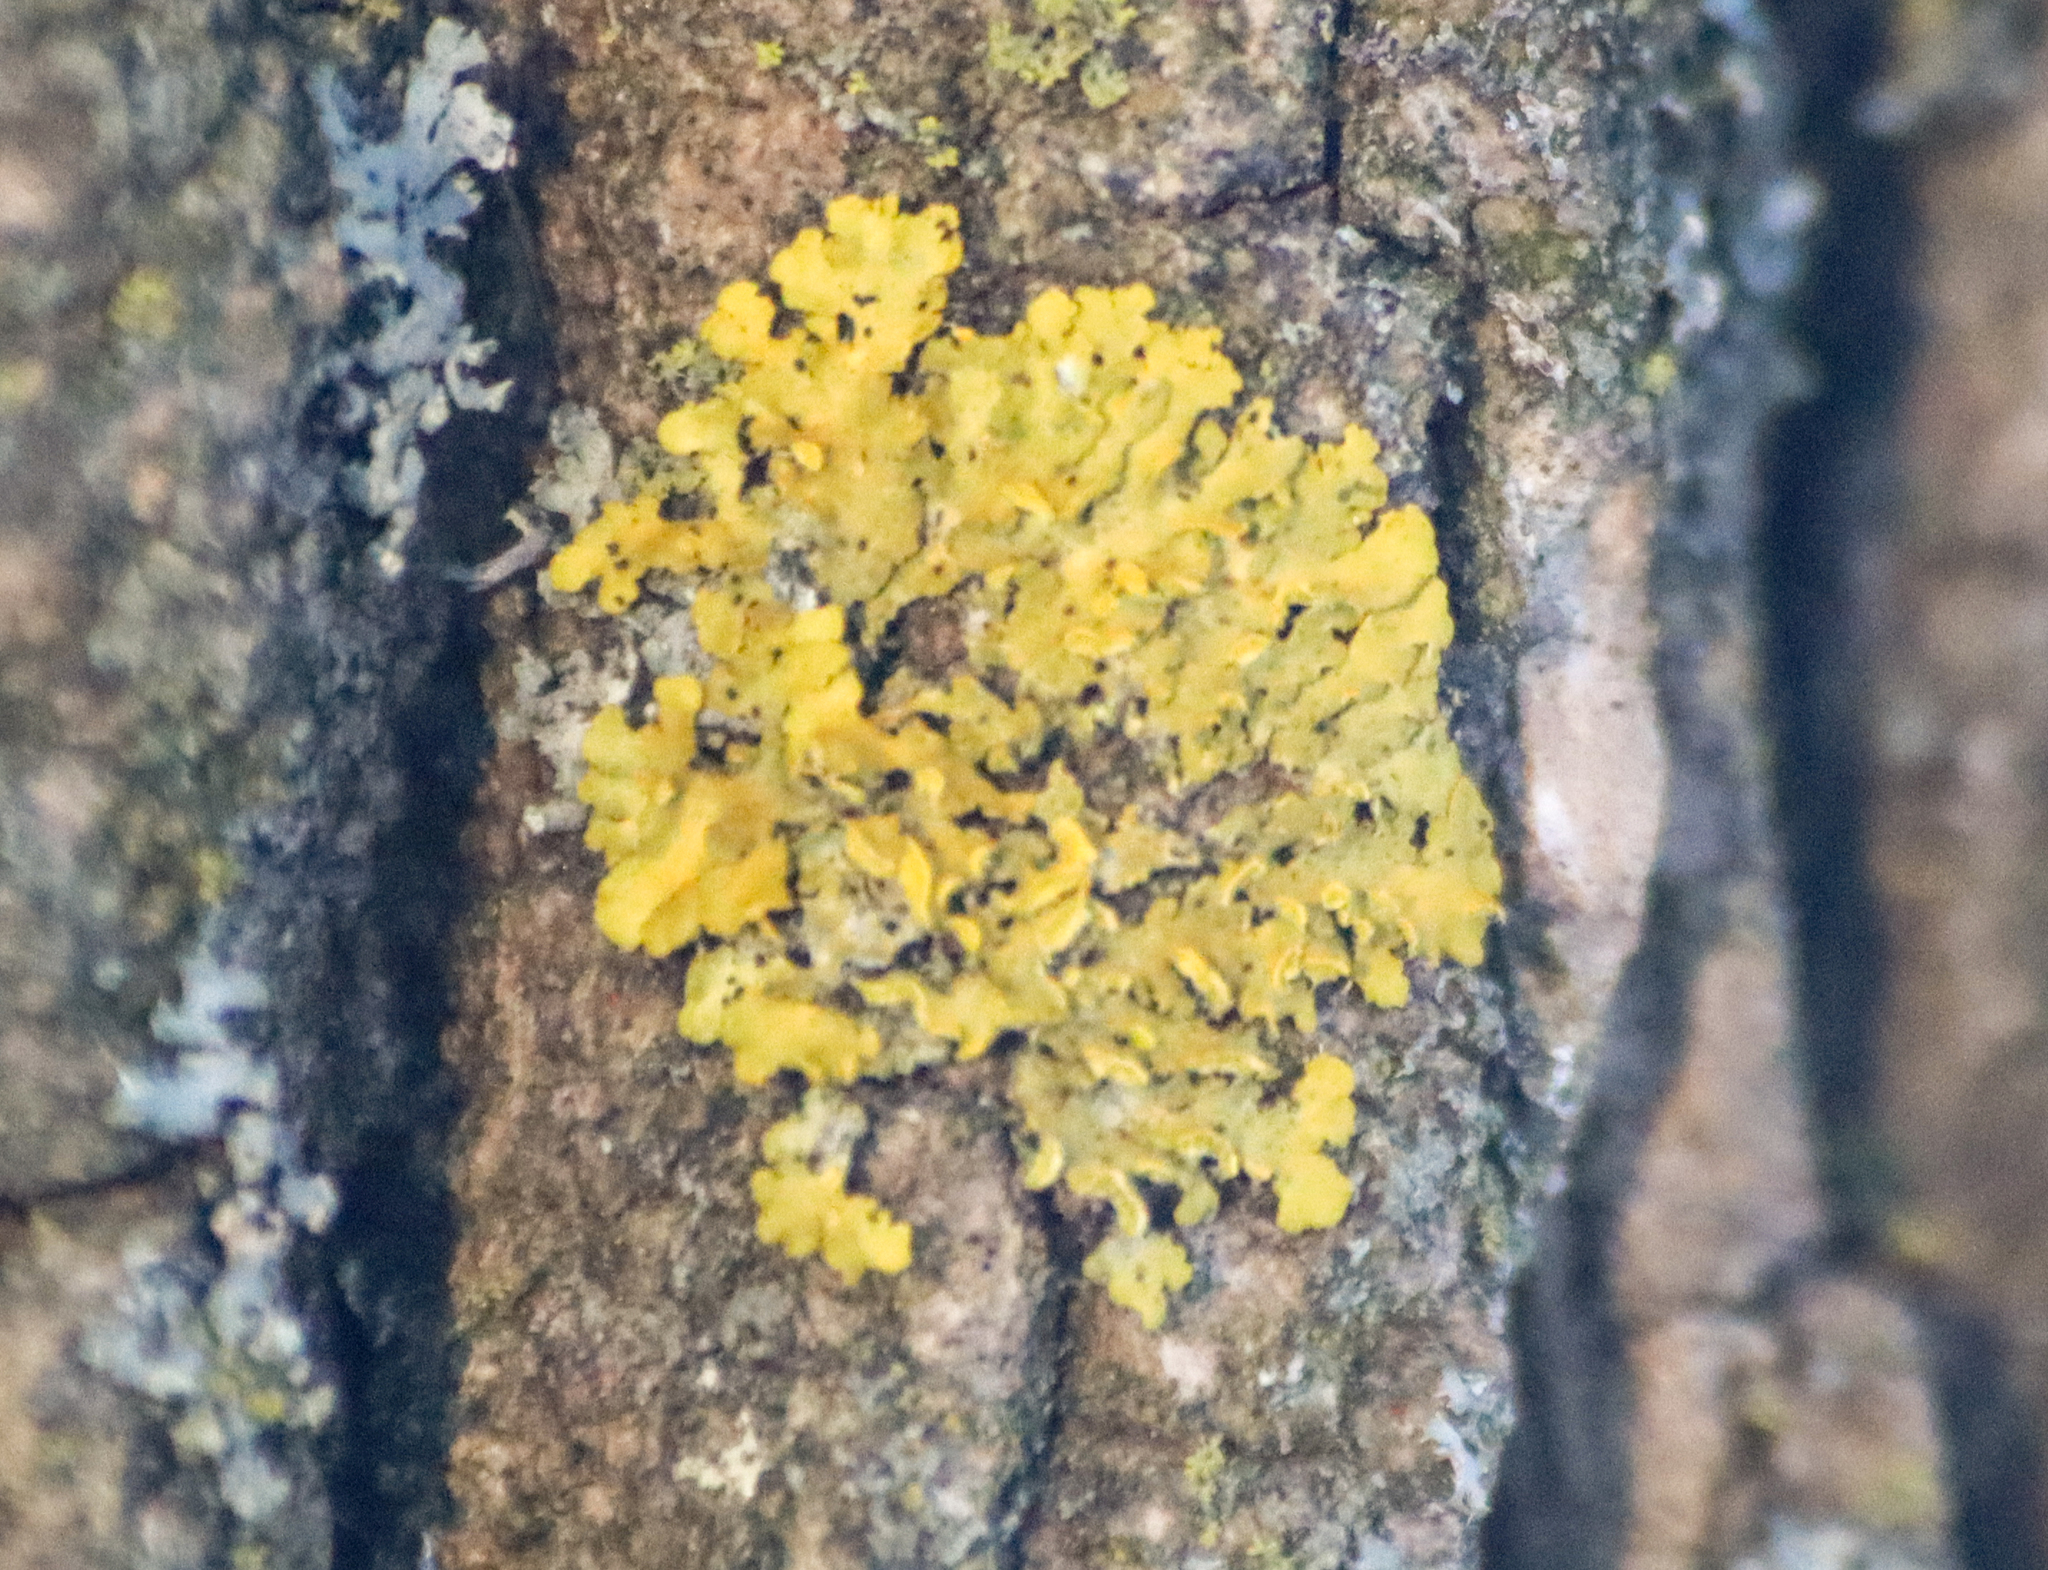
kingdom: Fungi
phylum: Ascomycota
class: Lecanoromycetes
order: Teloschistales
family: Teloschistaceae
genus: Oxneria
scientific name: Oxneria fallax
